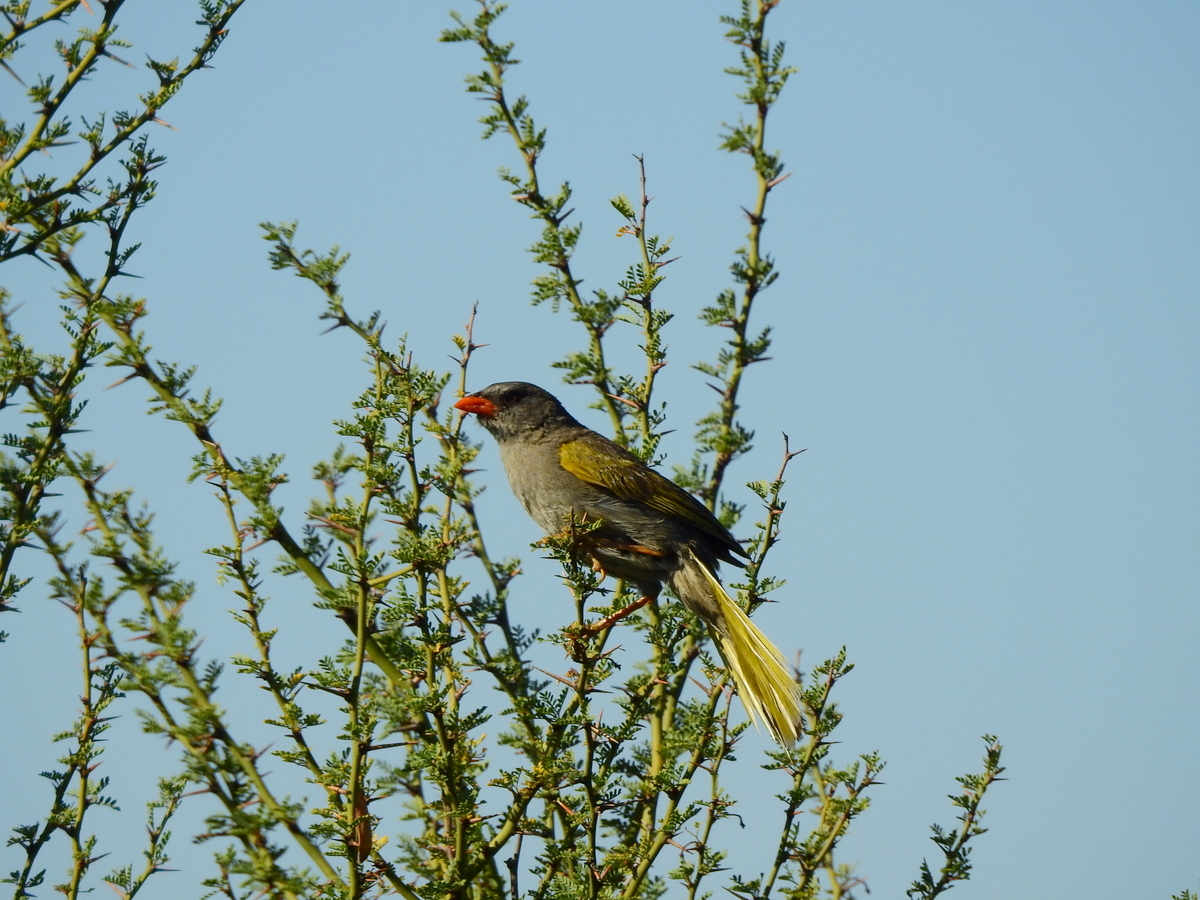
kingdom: Animalia
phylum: Chordata
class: Aves
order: Passeriformes
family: Thraupidae
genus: Embernagra
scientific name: Embernagra platensis
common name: Pampa finch
